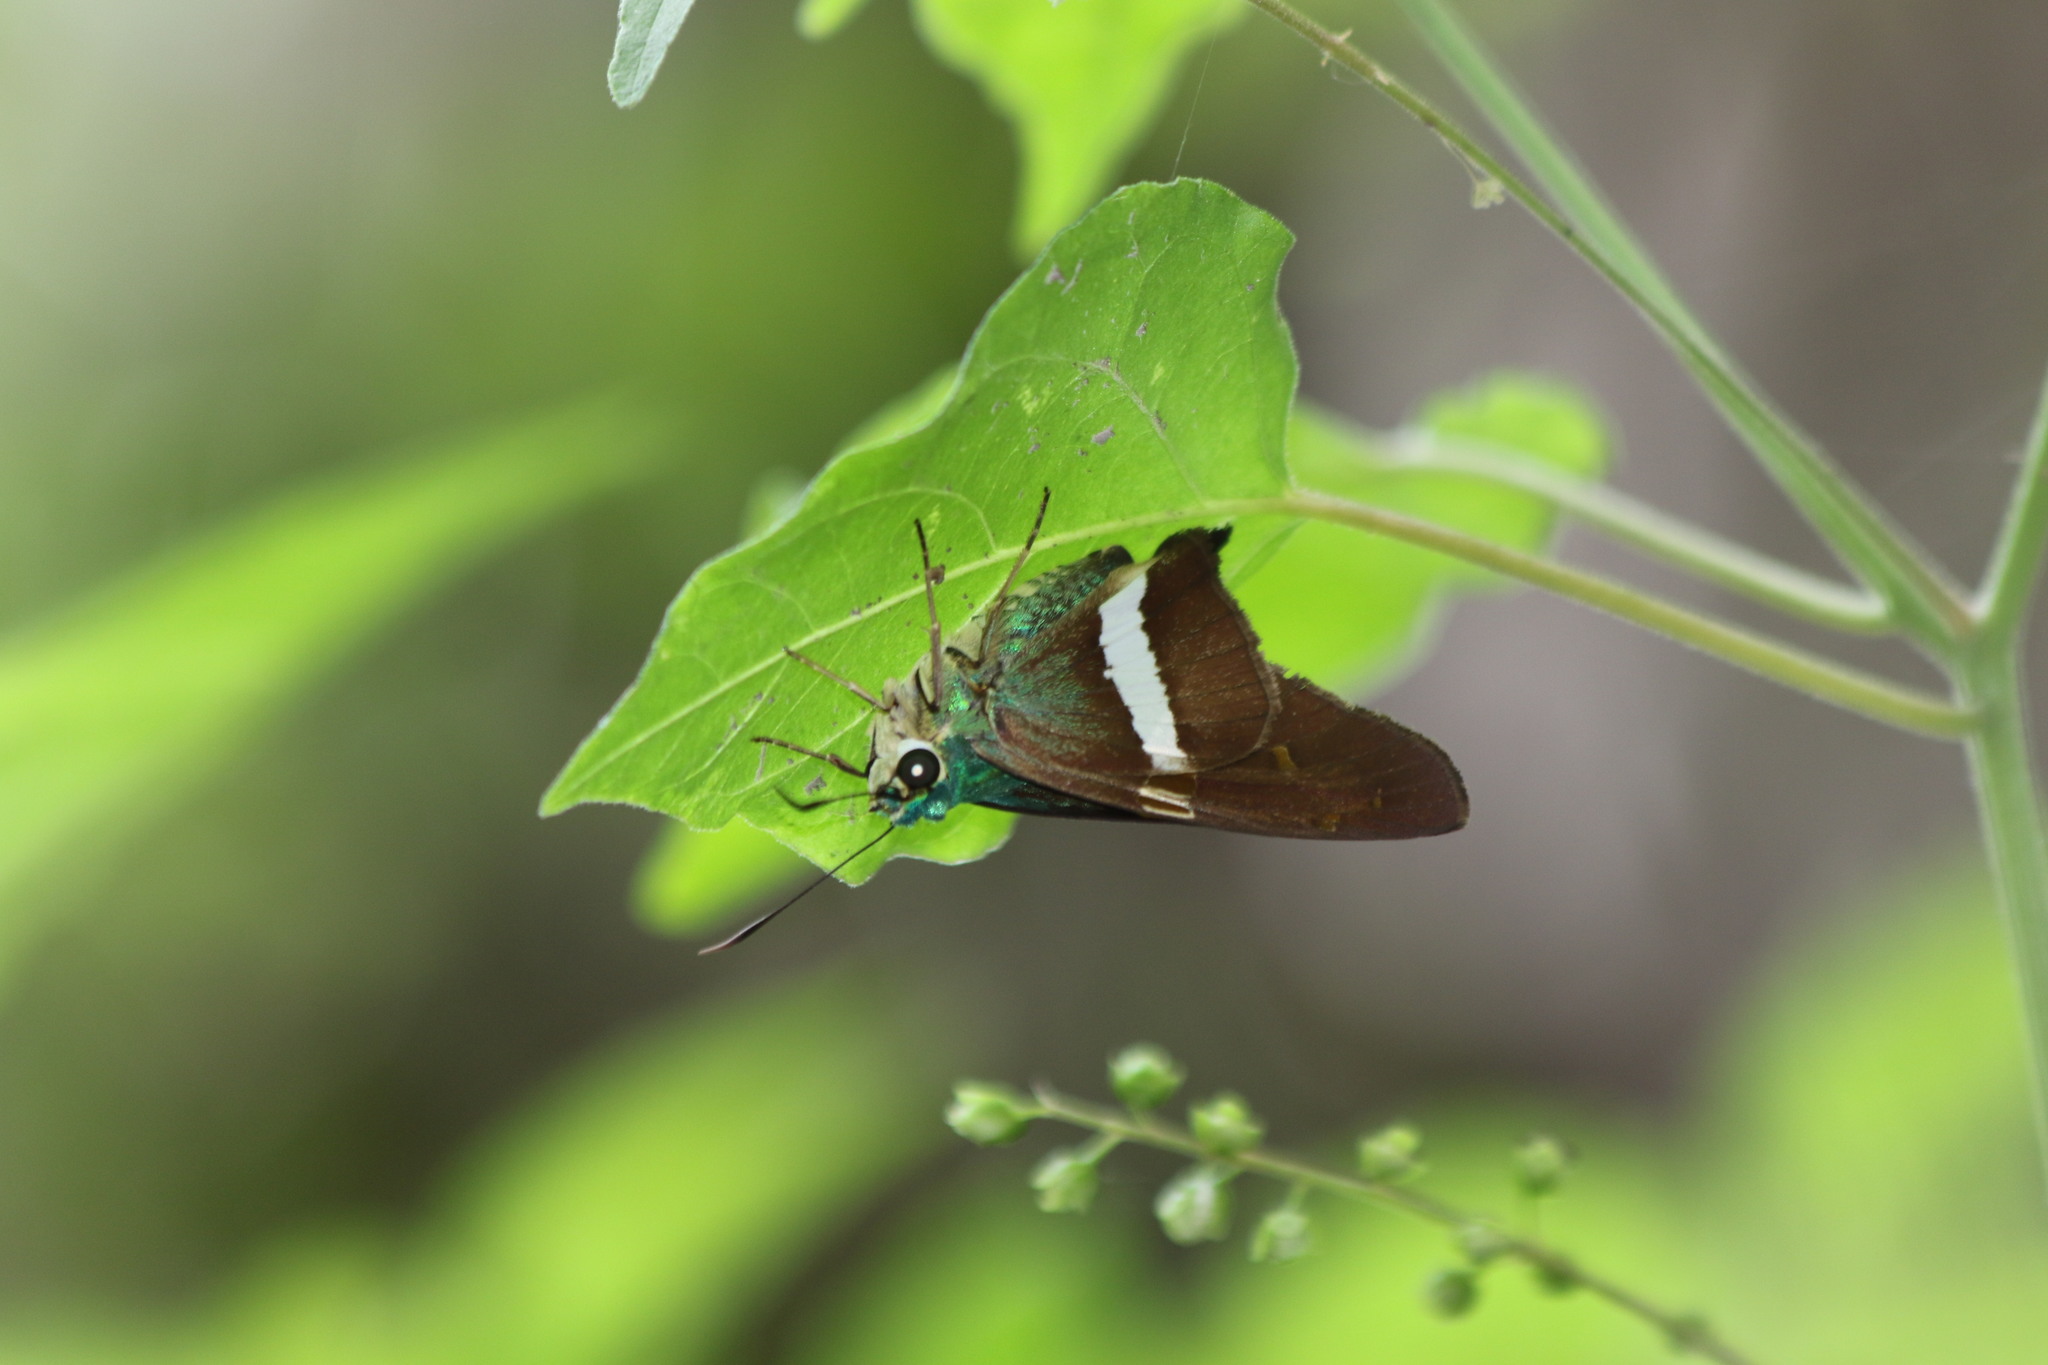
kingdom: Animalia
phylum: Arthropoda
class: Insecta
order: Lepidoptera
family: Hesperiidae
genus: Aguna
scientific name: Aguna claxon
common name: Emerald aguna
